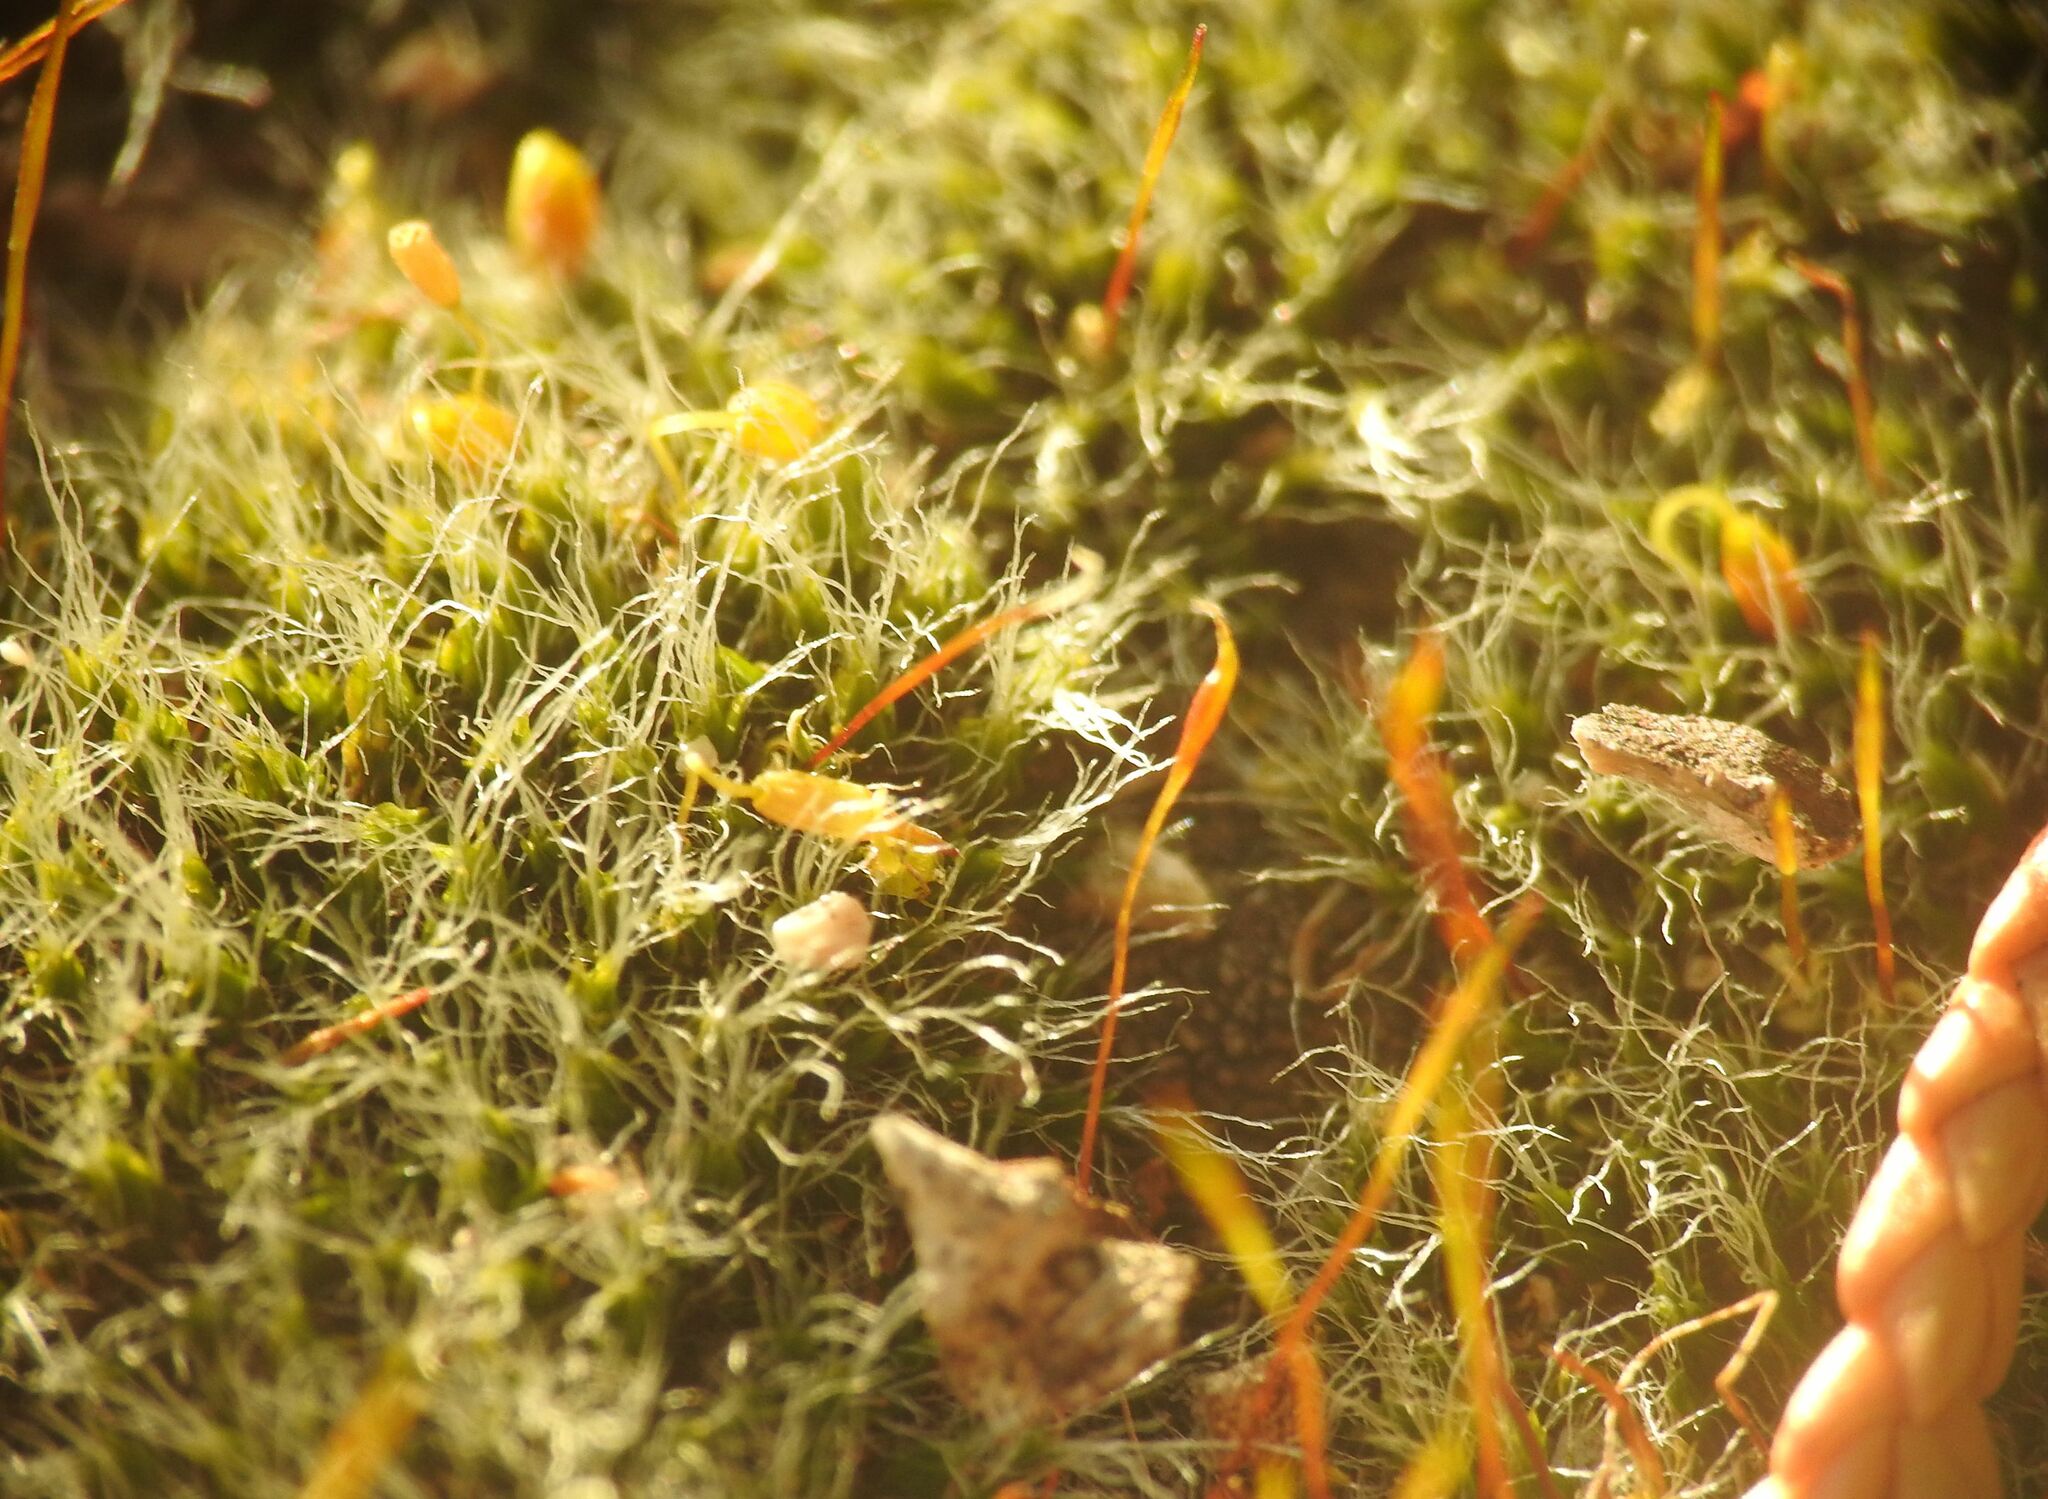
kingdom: Plantae
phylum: Bryophyta
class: Bryopsida
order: Pottiales
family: Pottiaceae
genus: Tortula
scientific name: Tortula muralis
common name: Wall screw-moss
